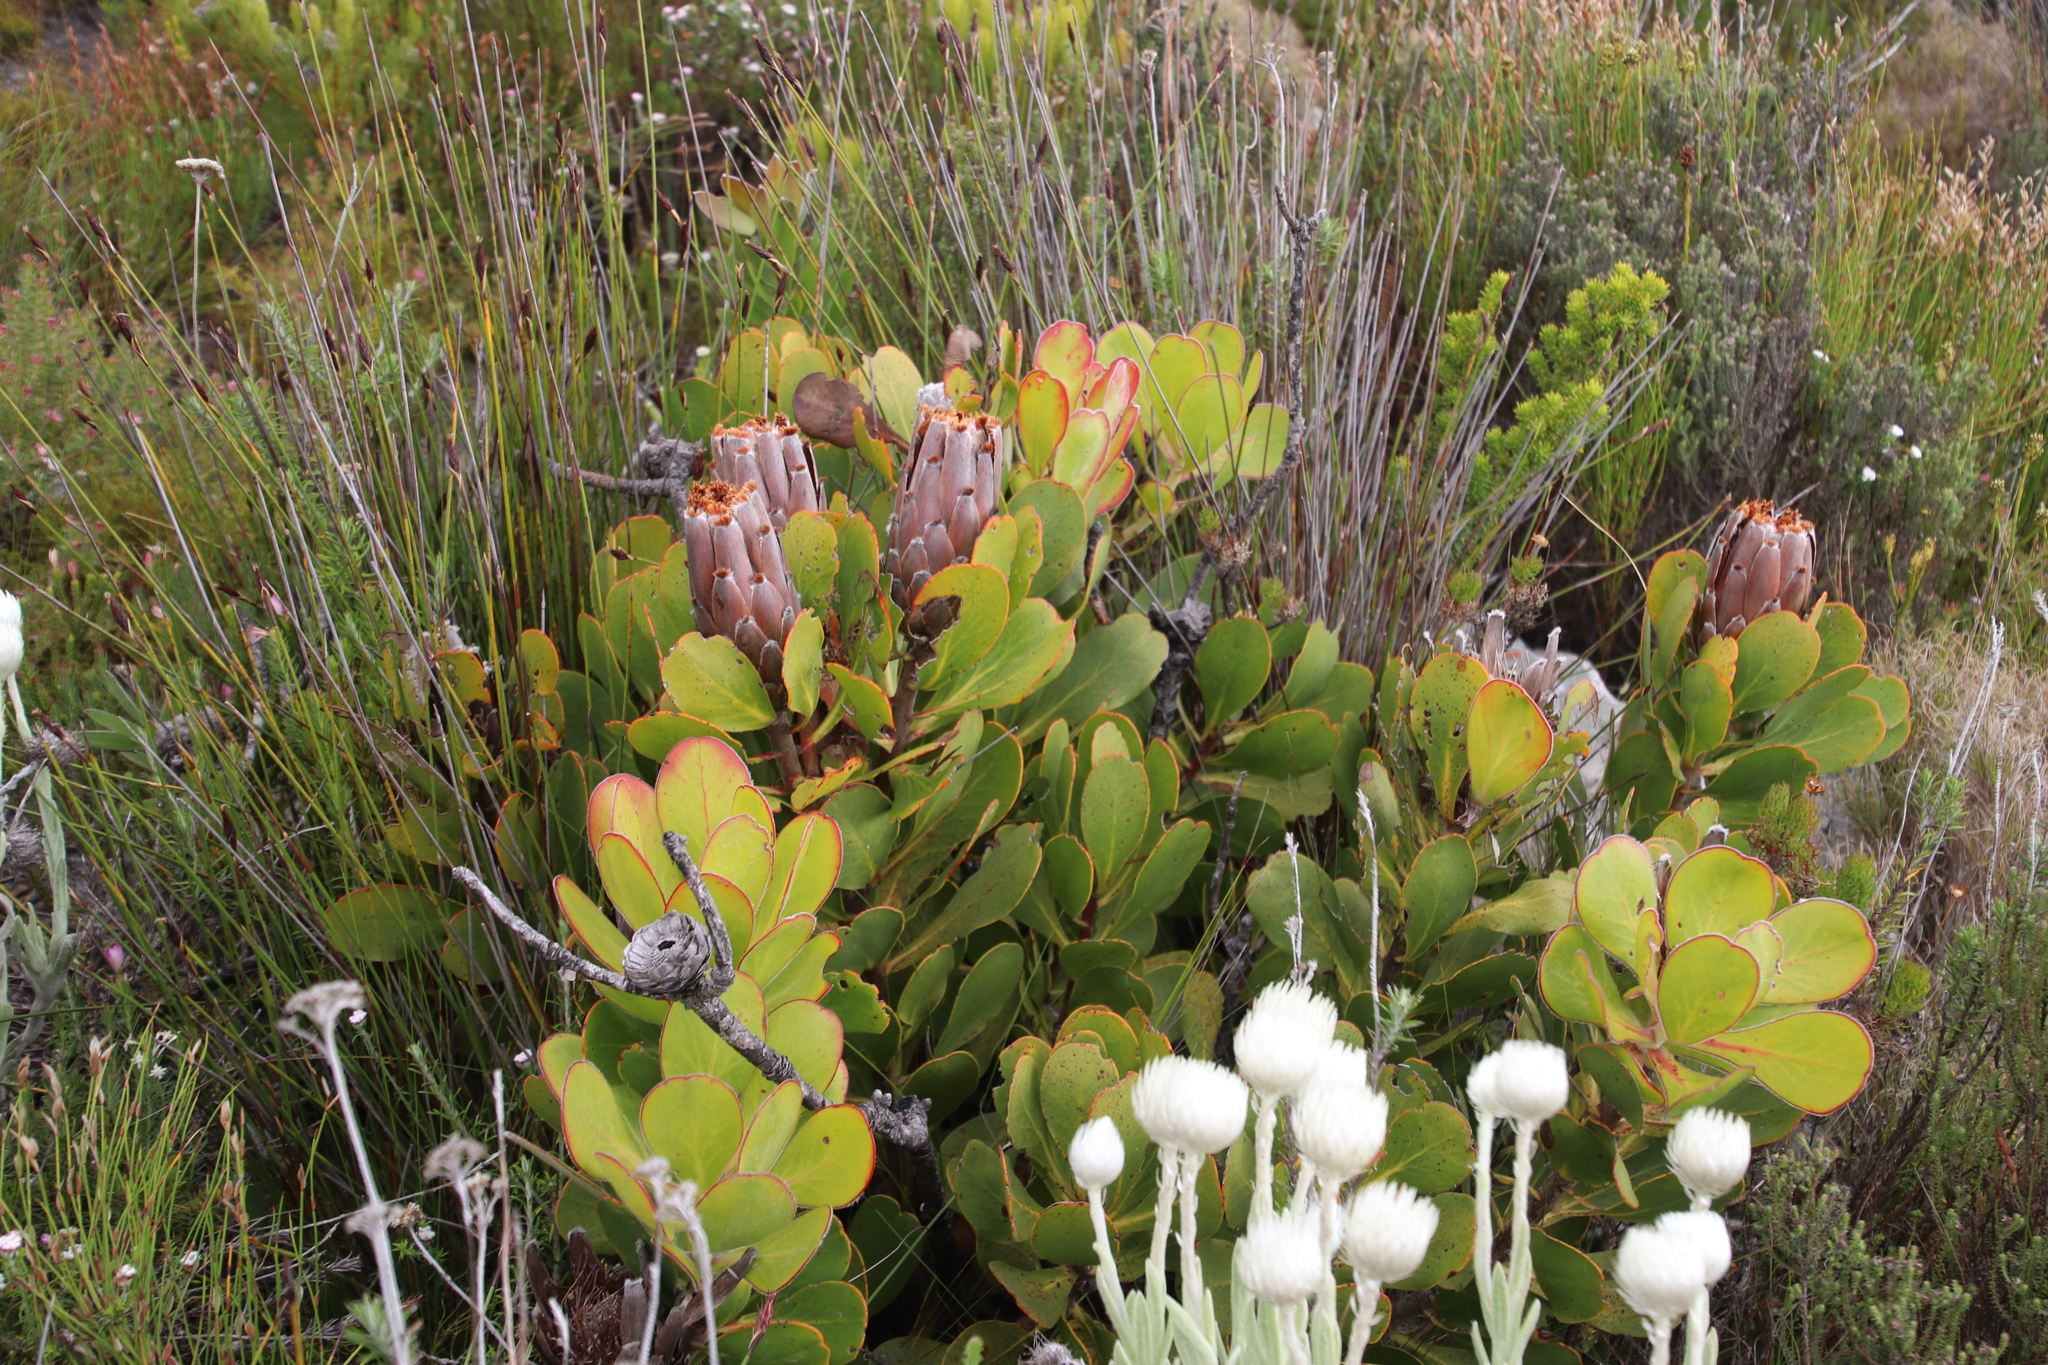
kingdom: Plantae
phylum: Tracheophyta
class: Magnoliopsida
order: Proteales
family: Proteaceae
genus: Protea
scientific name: Protea speciosa
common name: Brown-beard sugarbush
